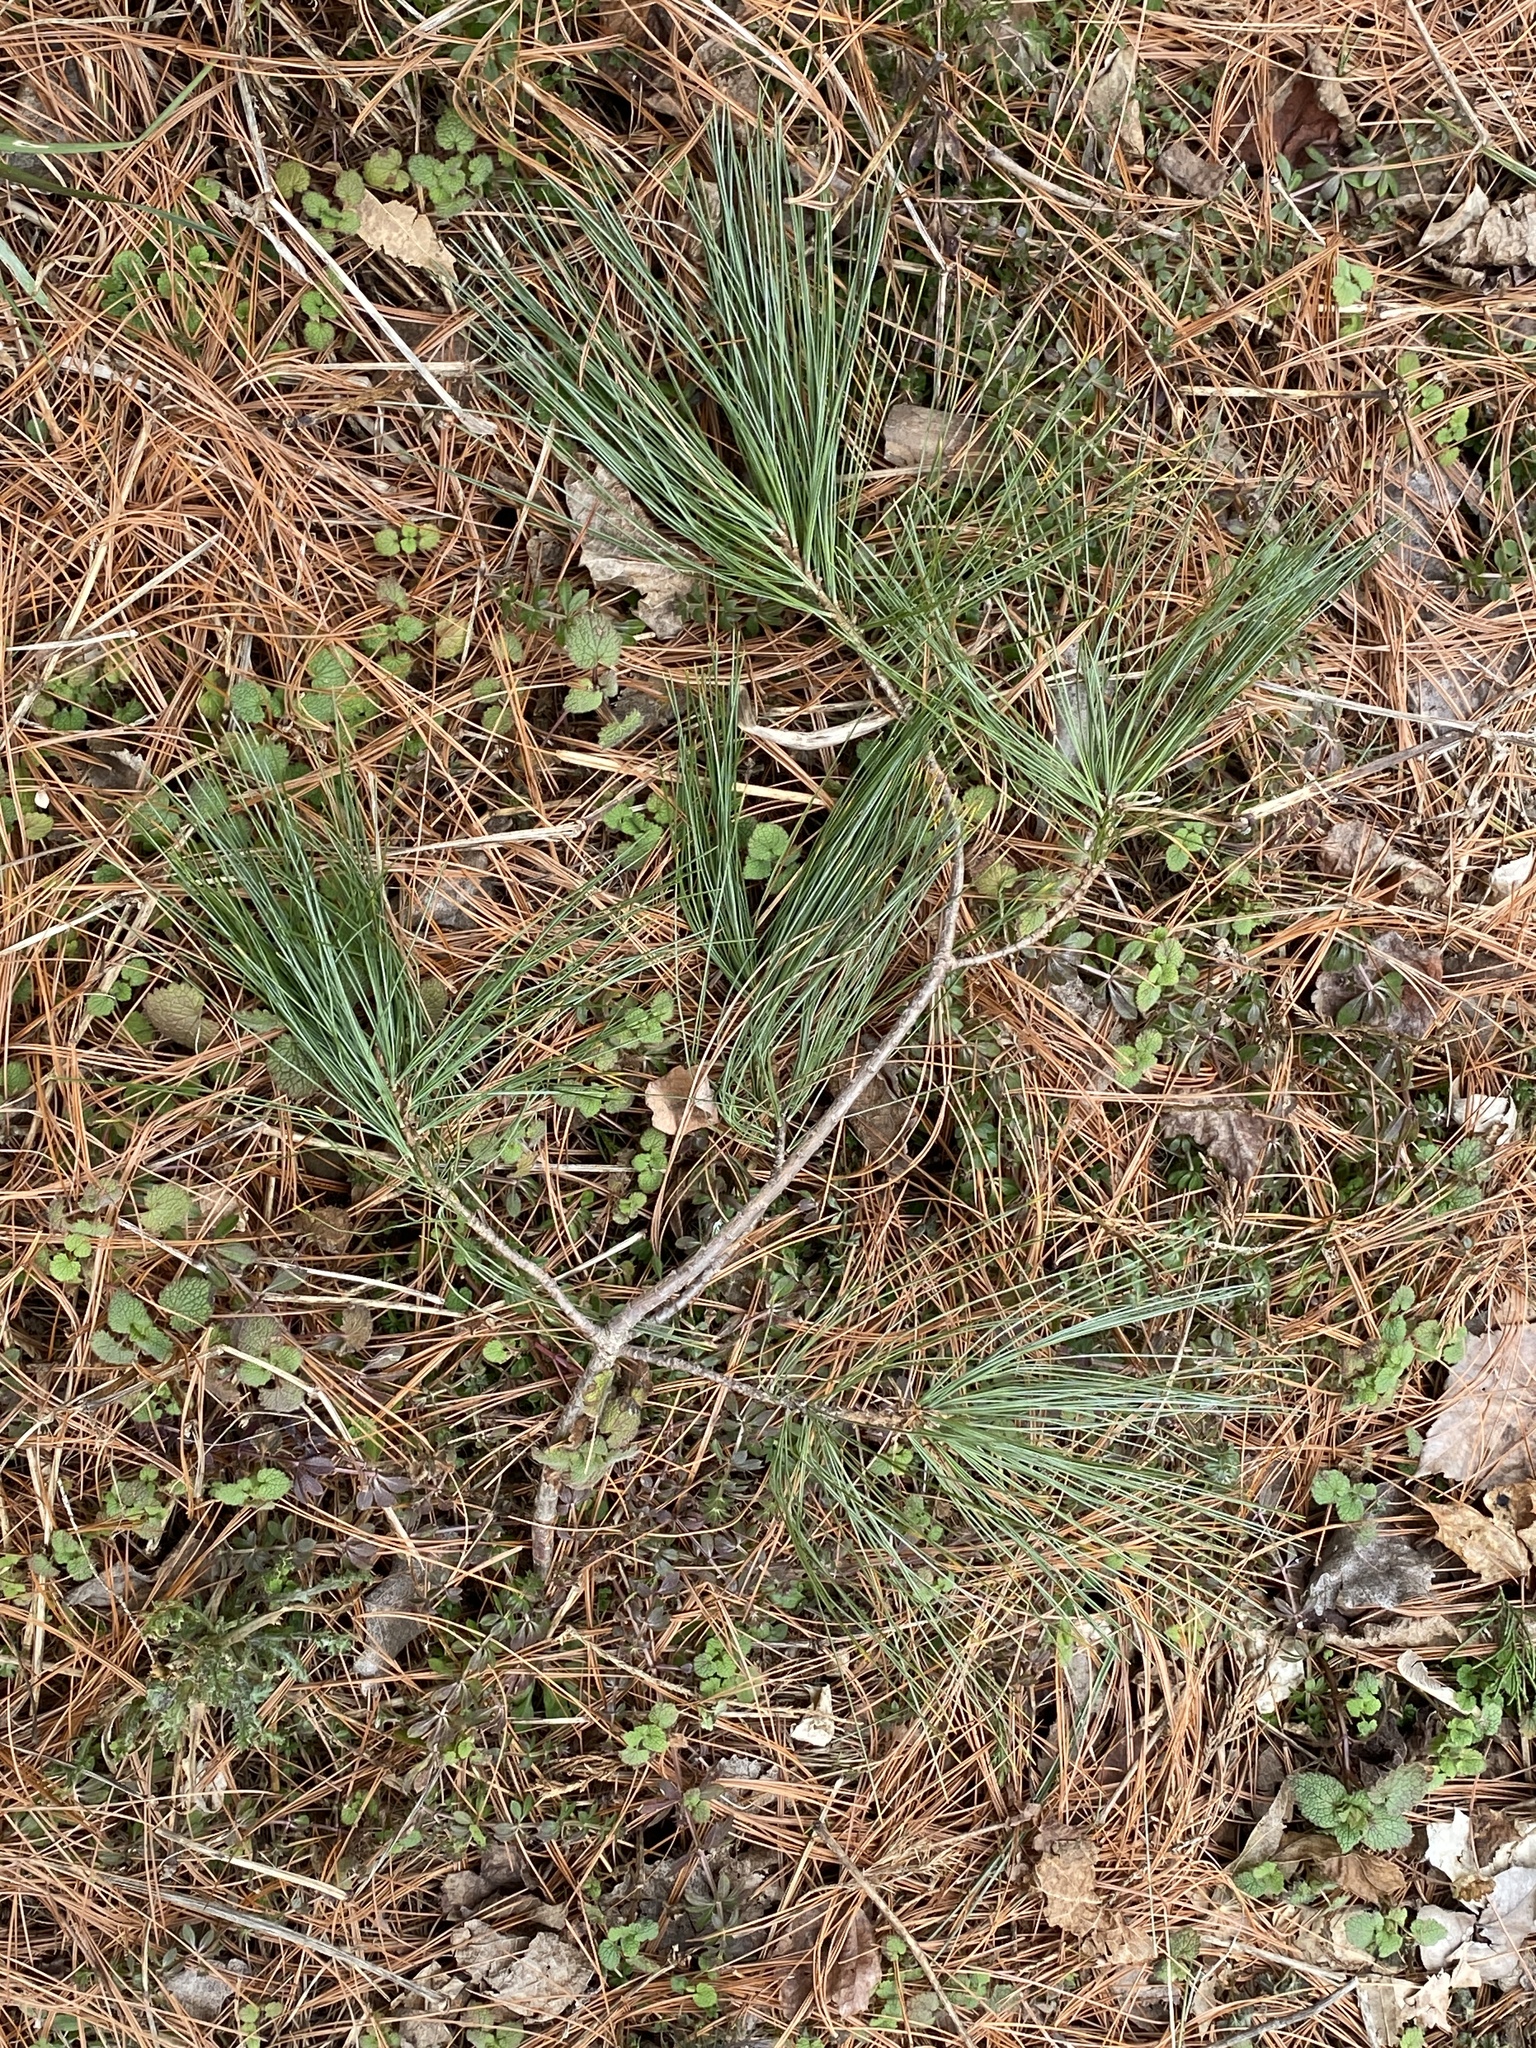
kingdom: Plantae
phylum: Tracheophyta
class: Pinopsida
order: Pinales
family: Pinaceae
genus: Pinus
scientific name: Pinus strobus
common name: Weymouth pine
